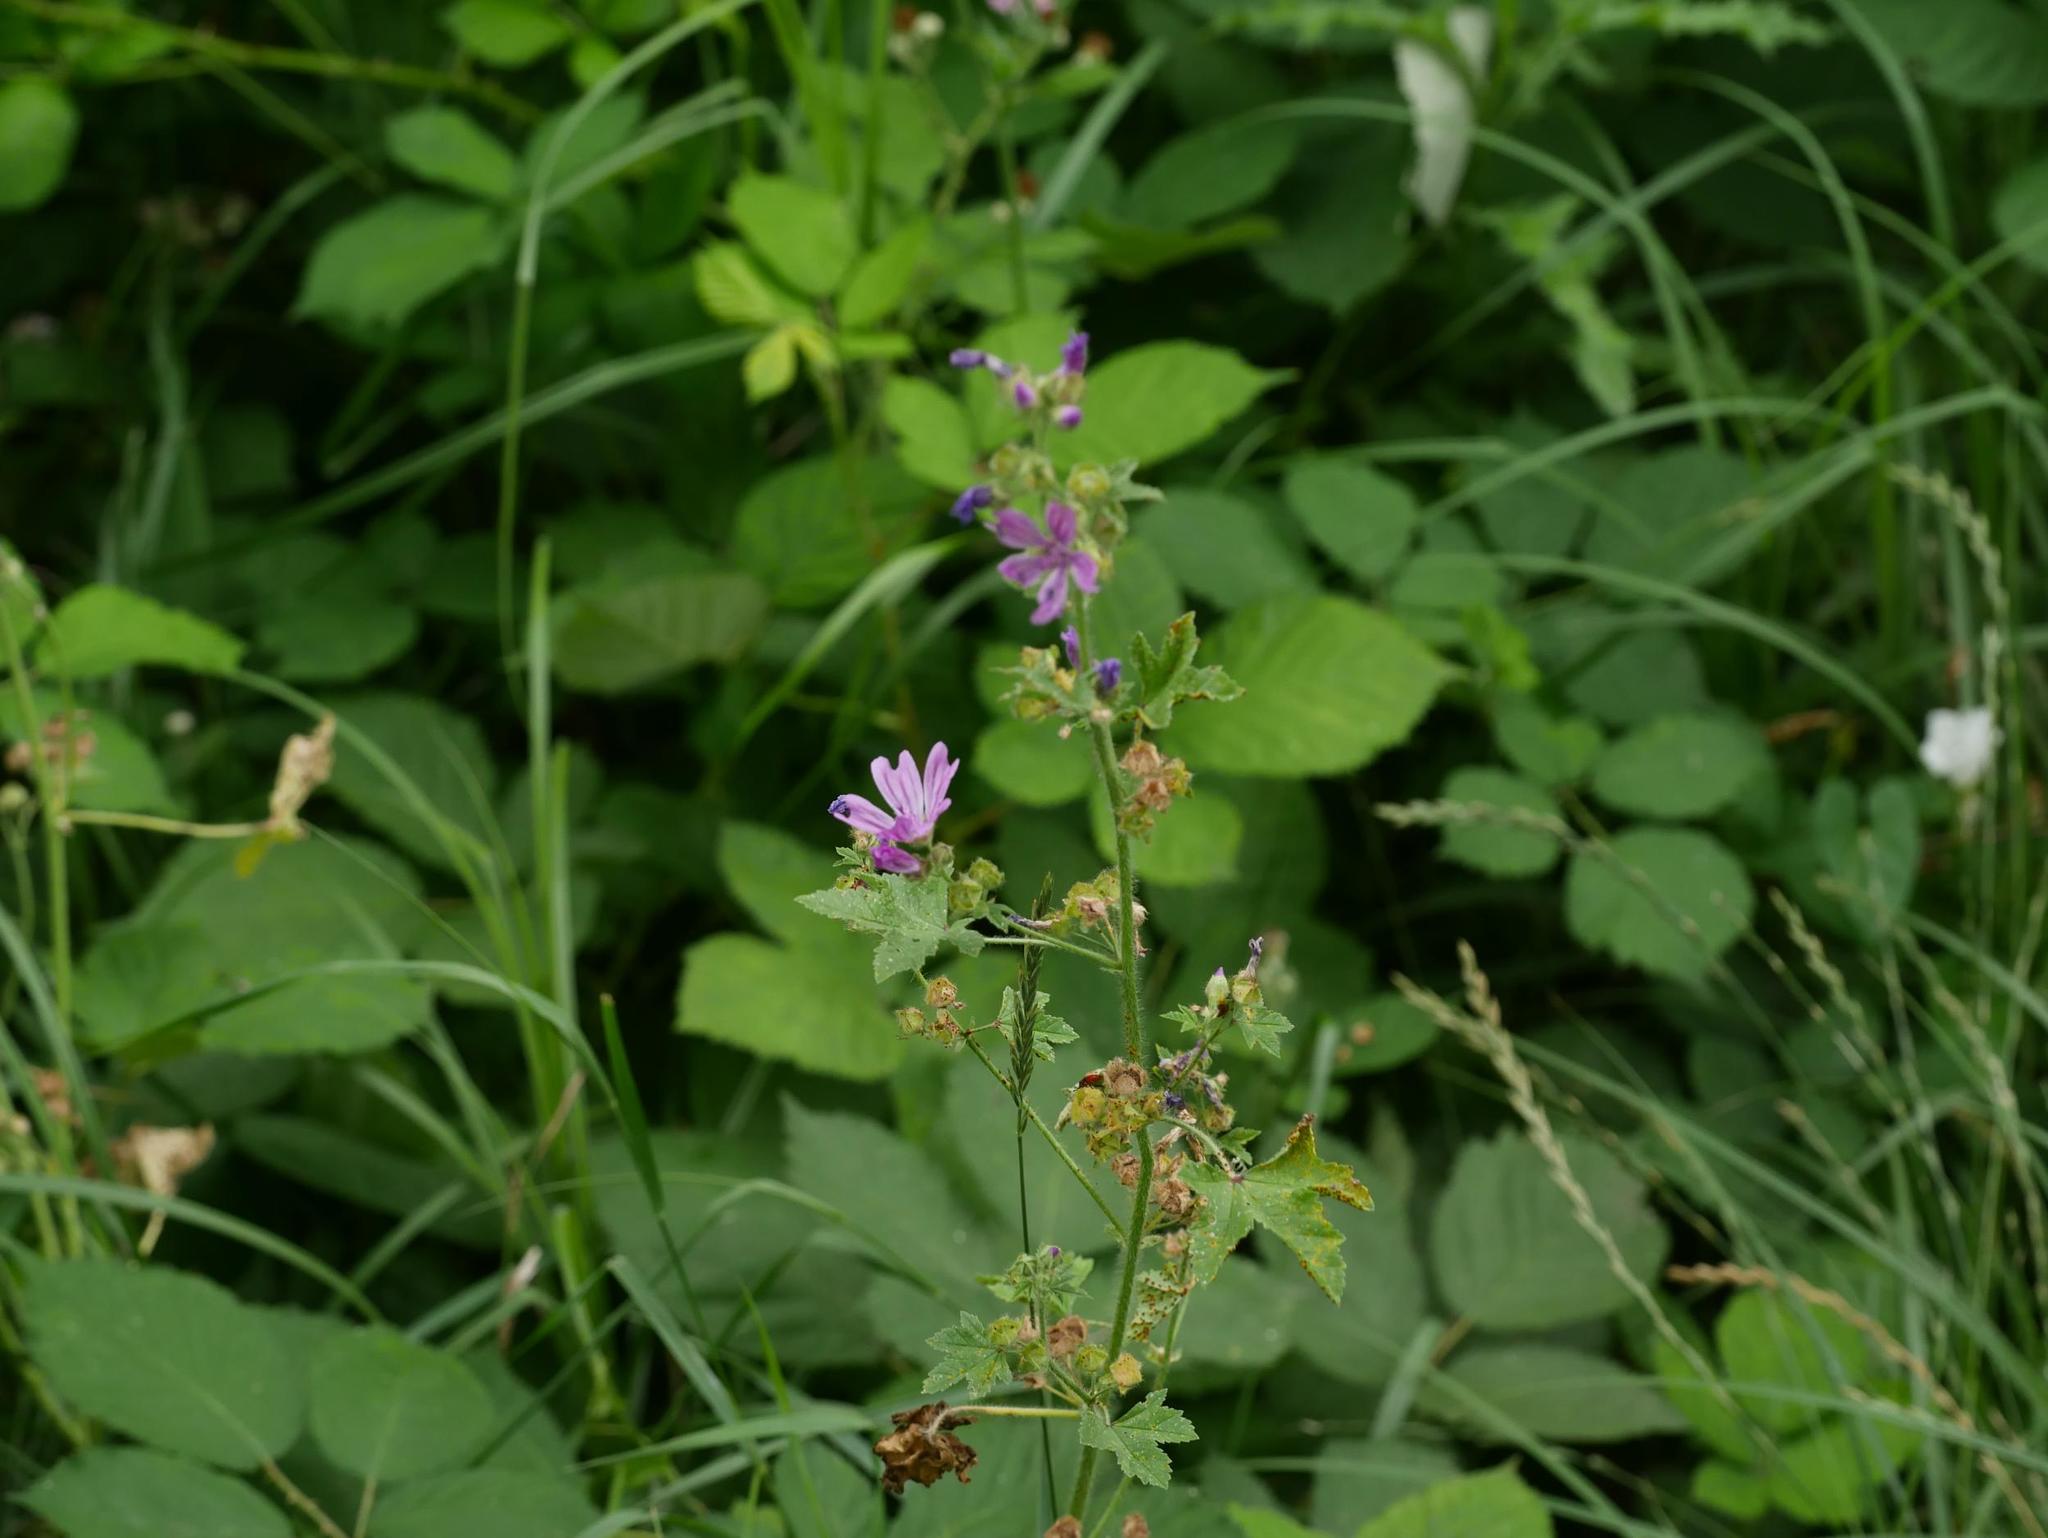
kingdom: Plantae
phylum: Tracheophyta
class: Magnoliopsida
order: Malvales
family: Malvaceae
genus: Malva
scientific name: Malva sylvestris
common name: Common mallow
